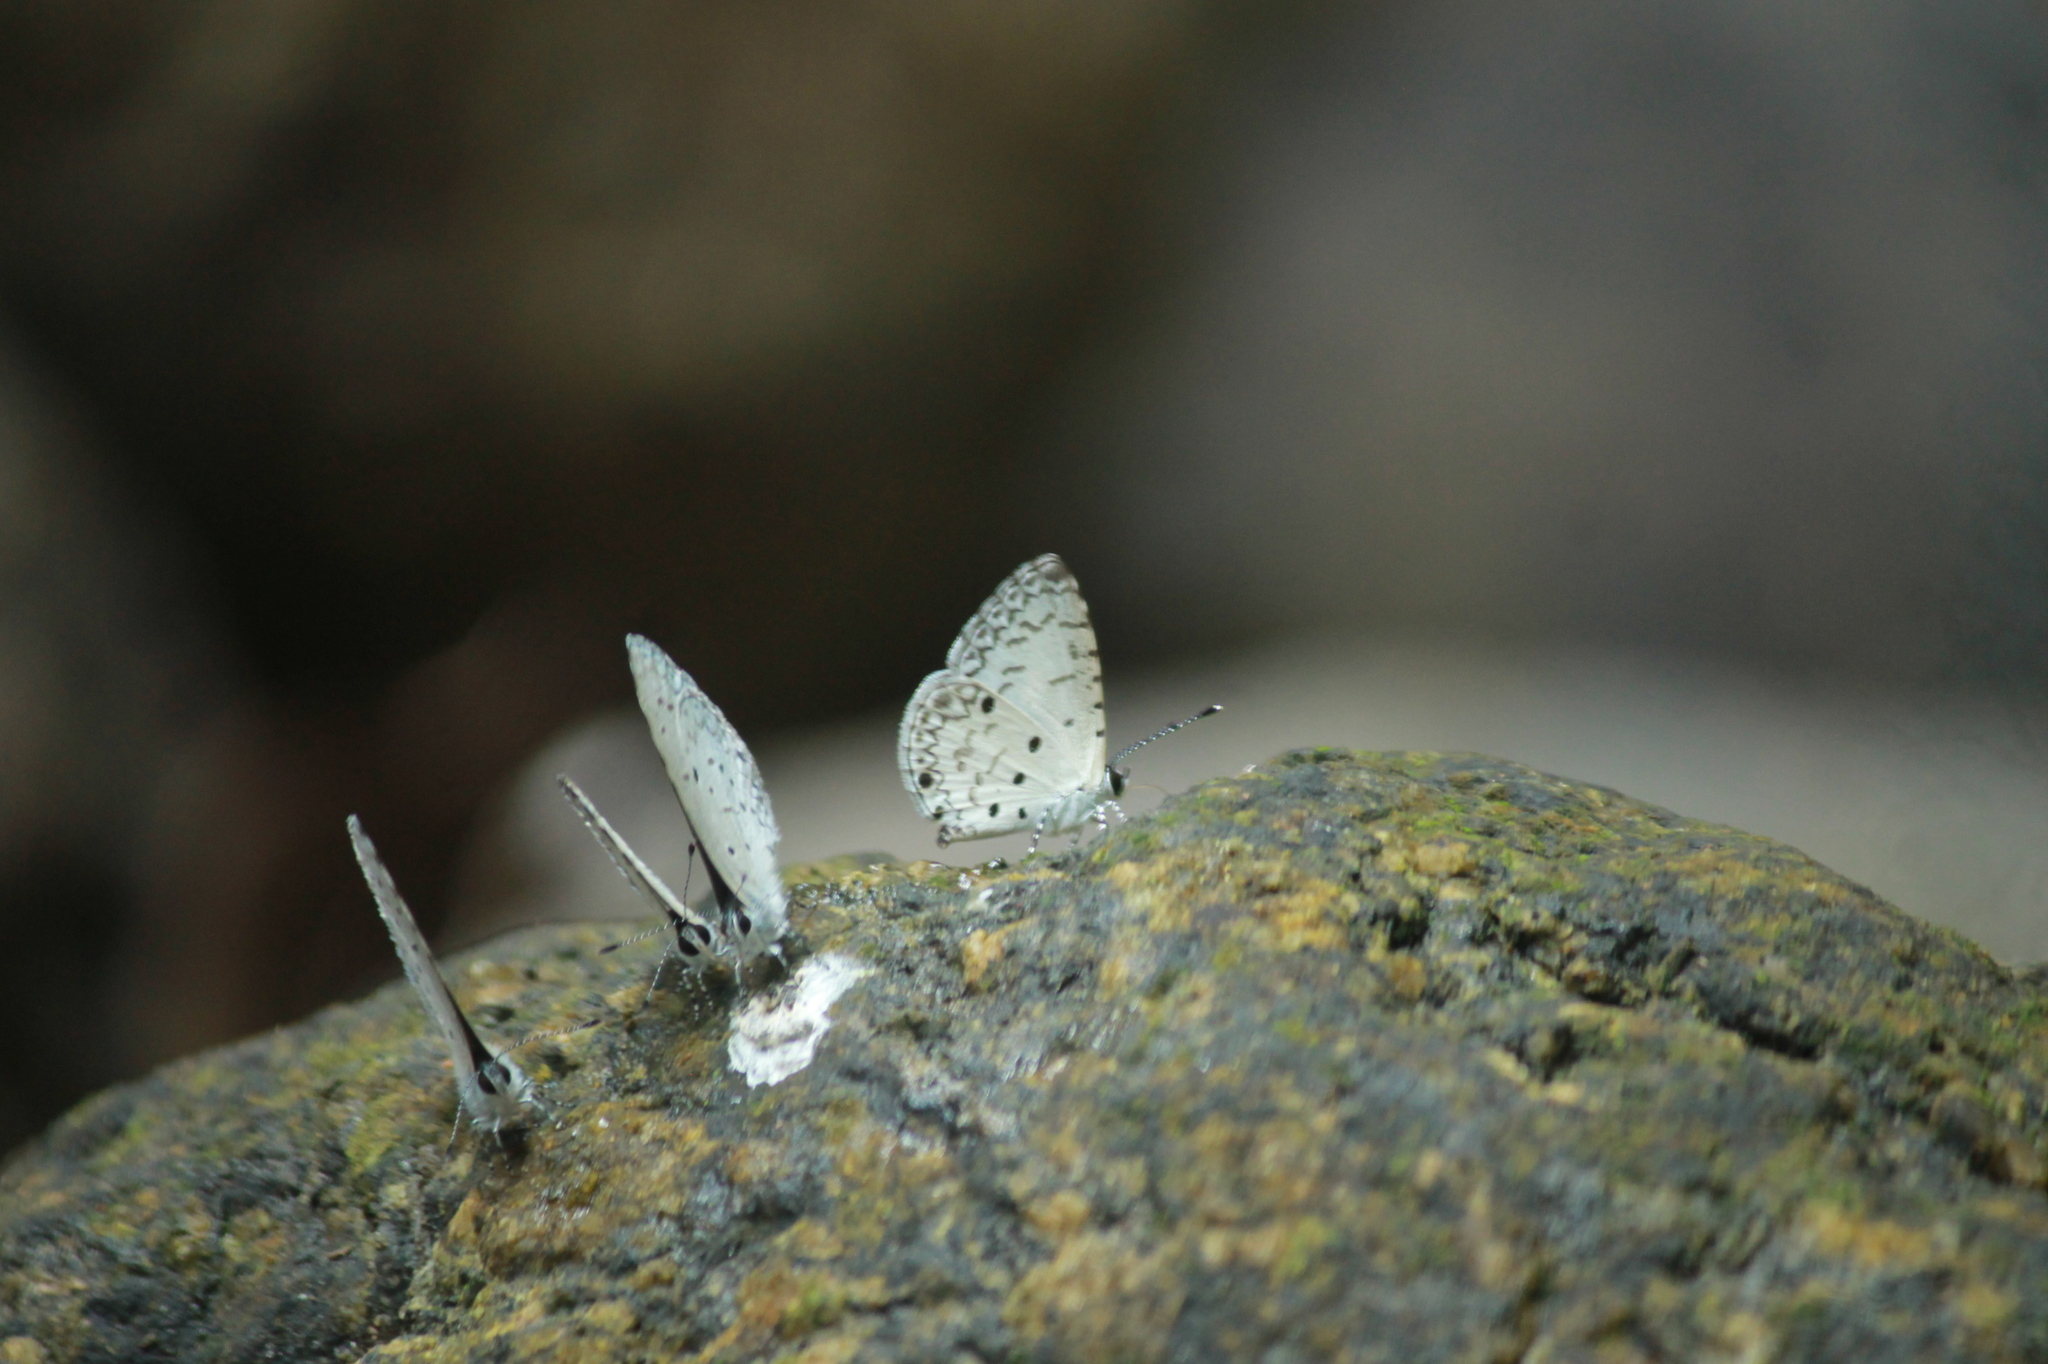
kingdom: Animalia
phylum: Arthropoda
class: Insecta
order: Lepidoptera
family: Lycaenidae
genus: Megisba
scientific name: Megisba malaya
